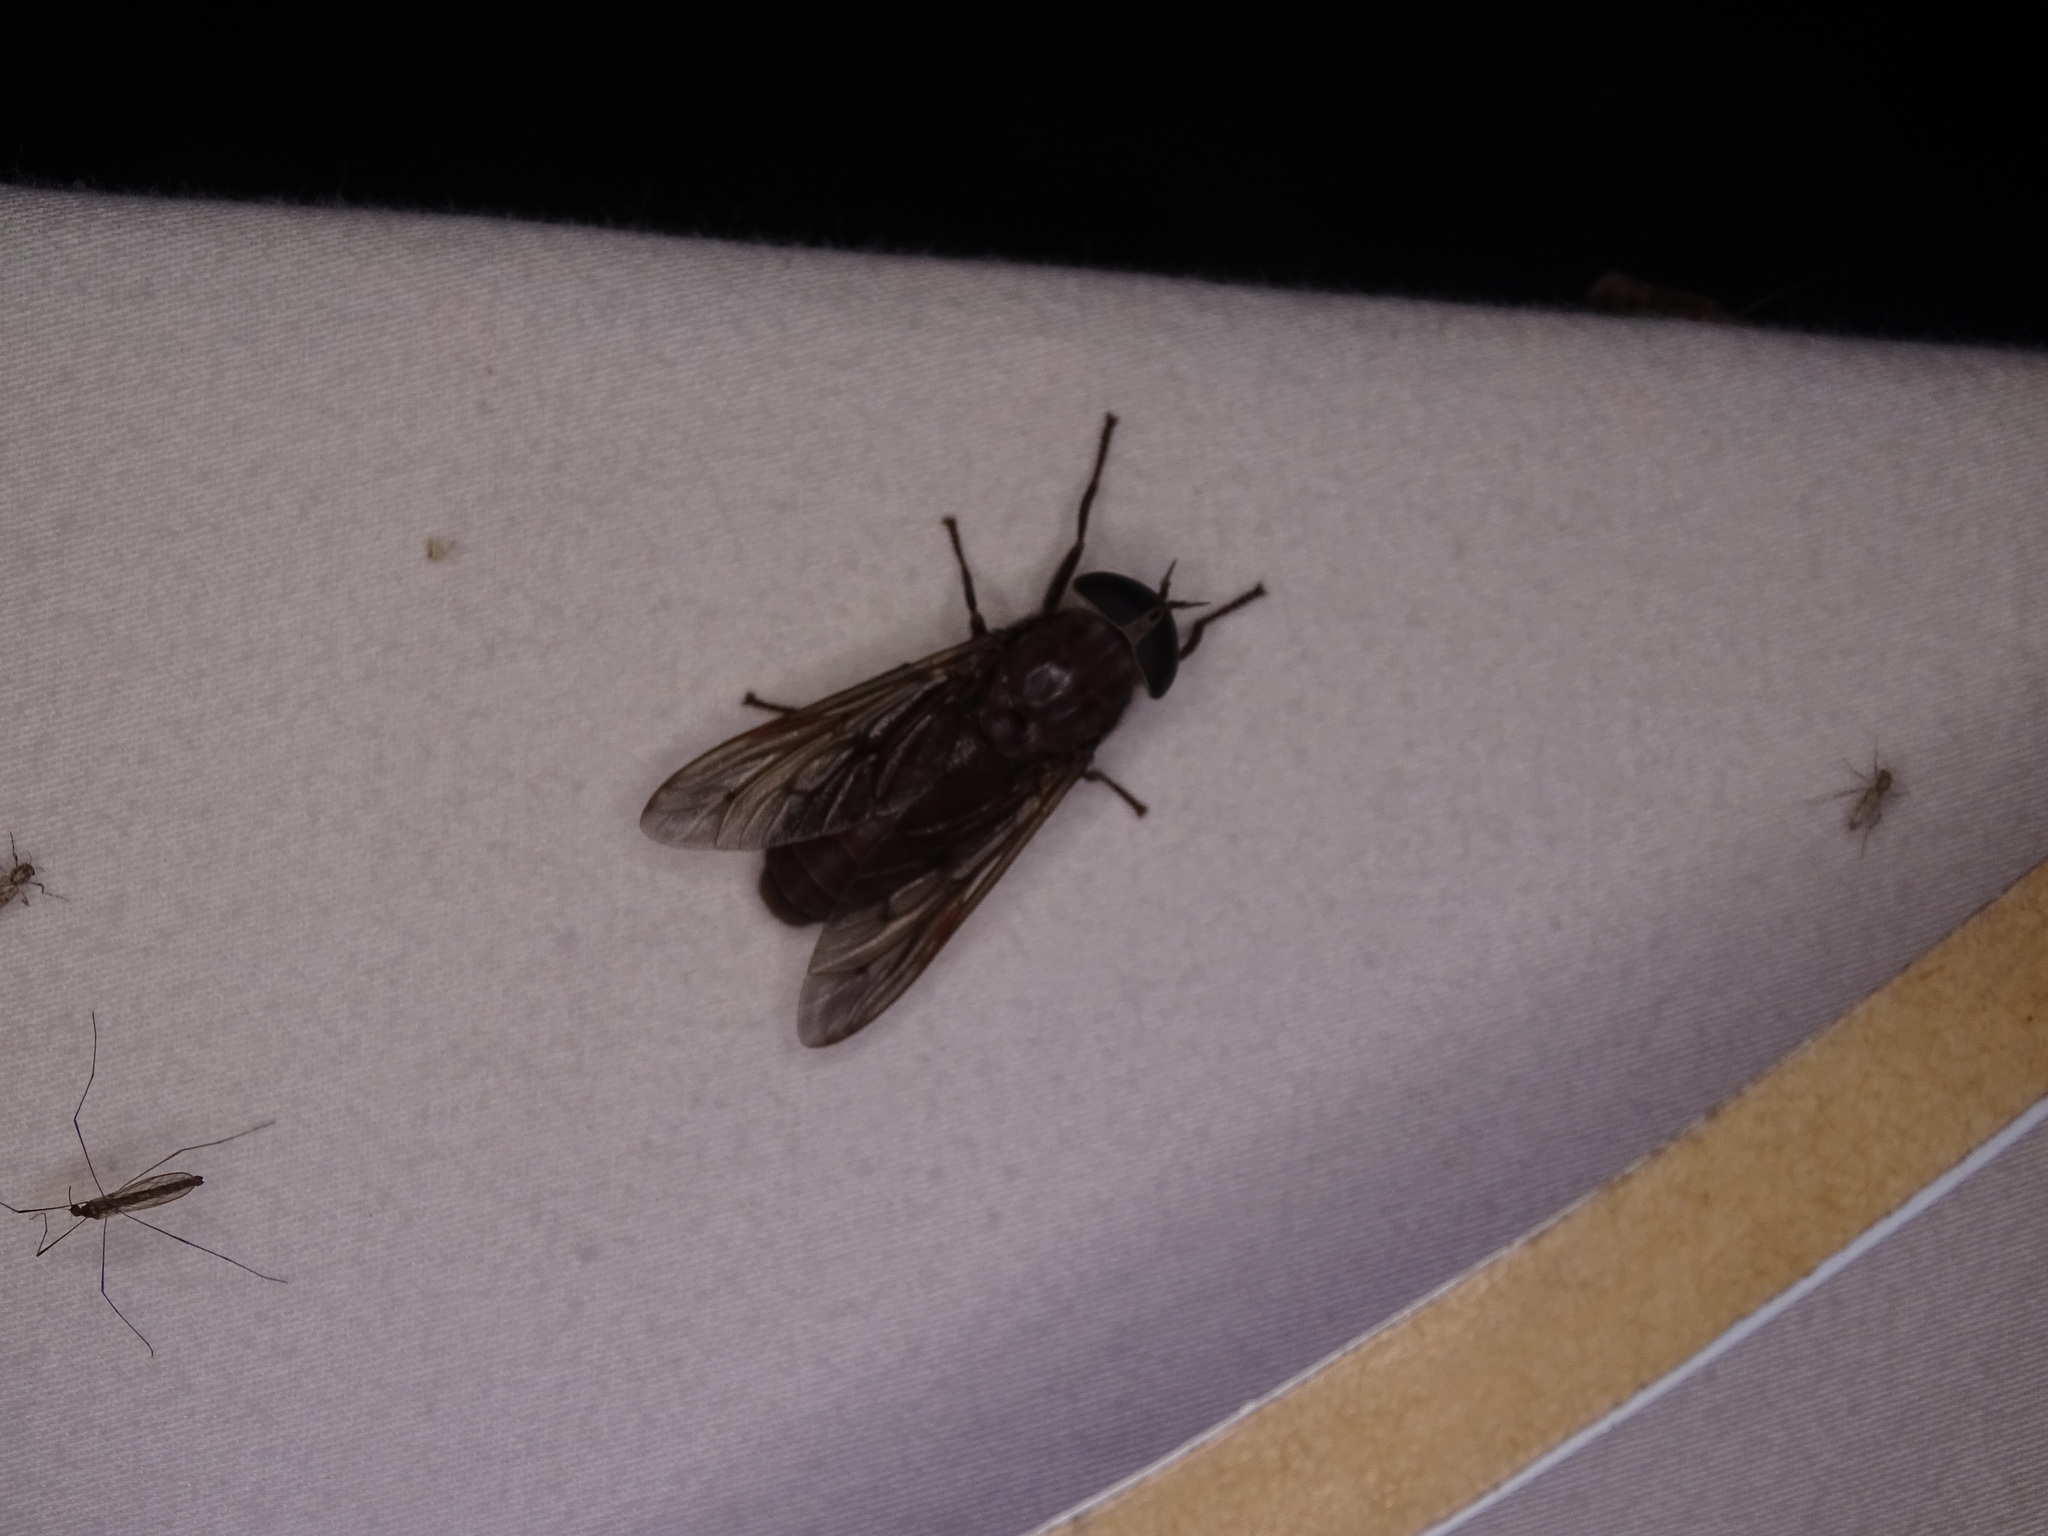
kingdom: Animalia
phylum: Arthropoda
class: Insecta
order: Diptera
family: Tabanidae
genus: Tabanus
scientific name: Tabanus atratus
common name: Black horse fly
